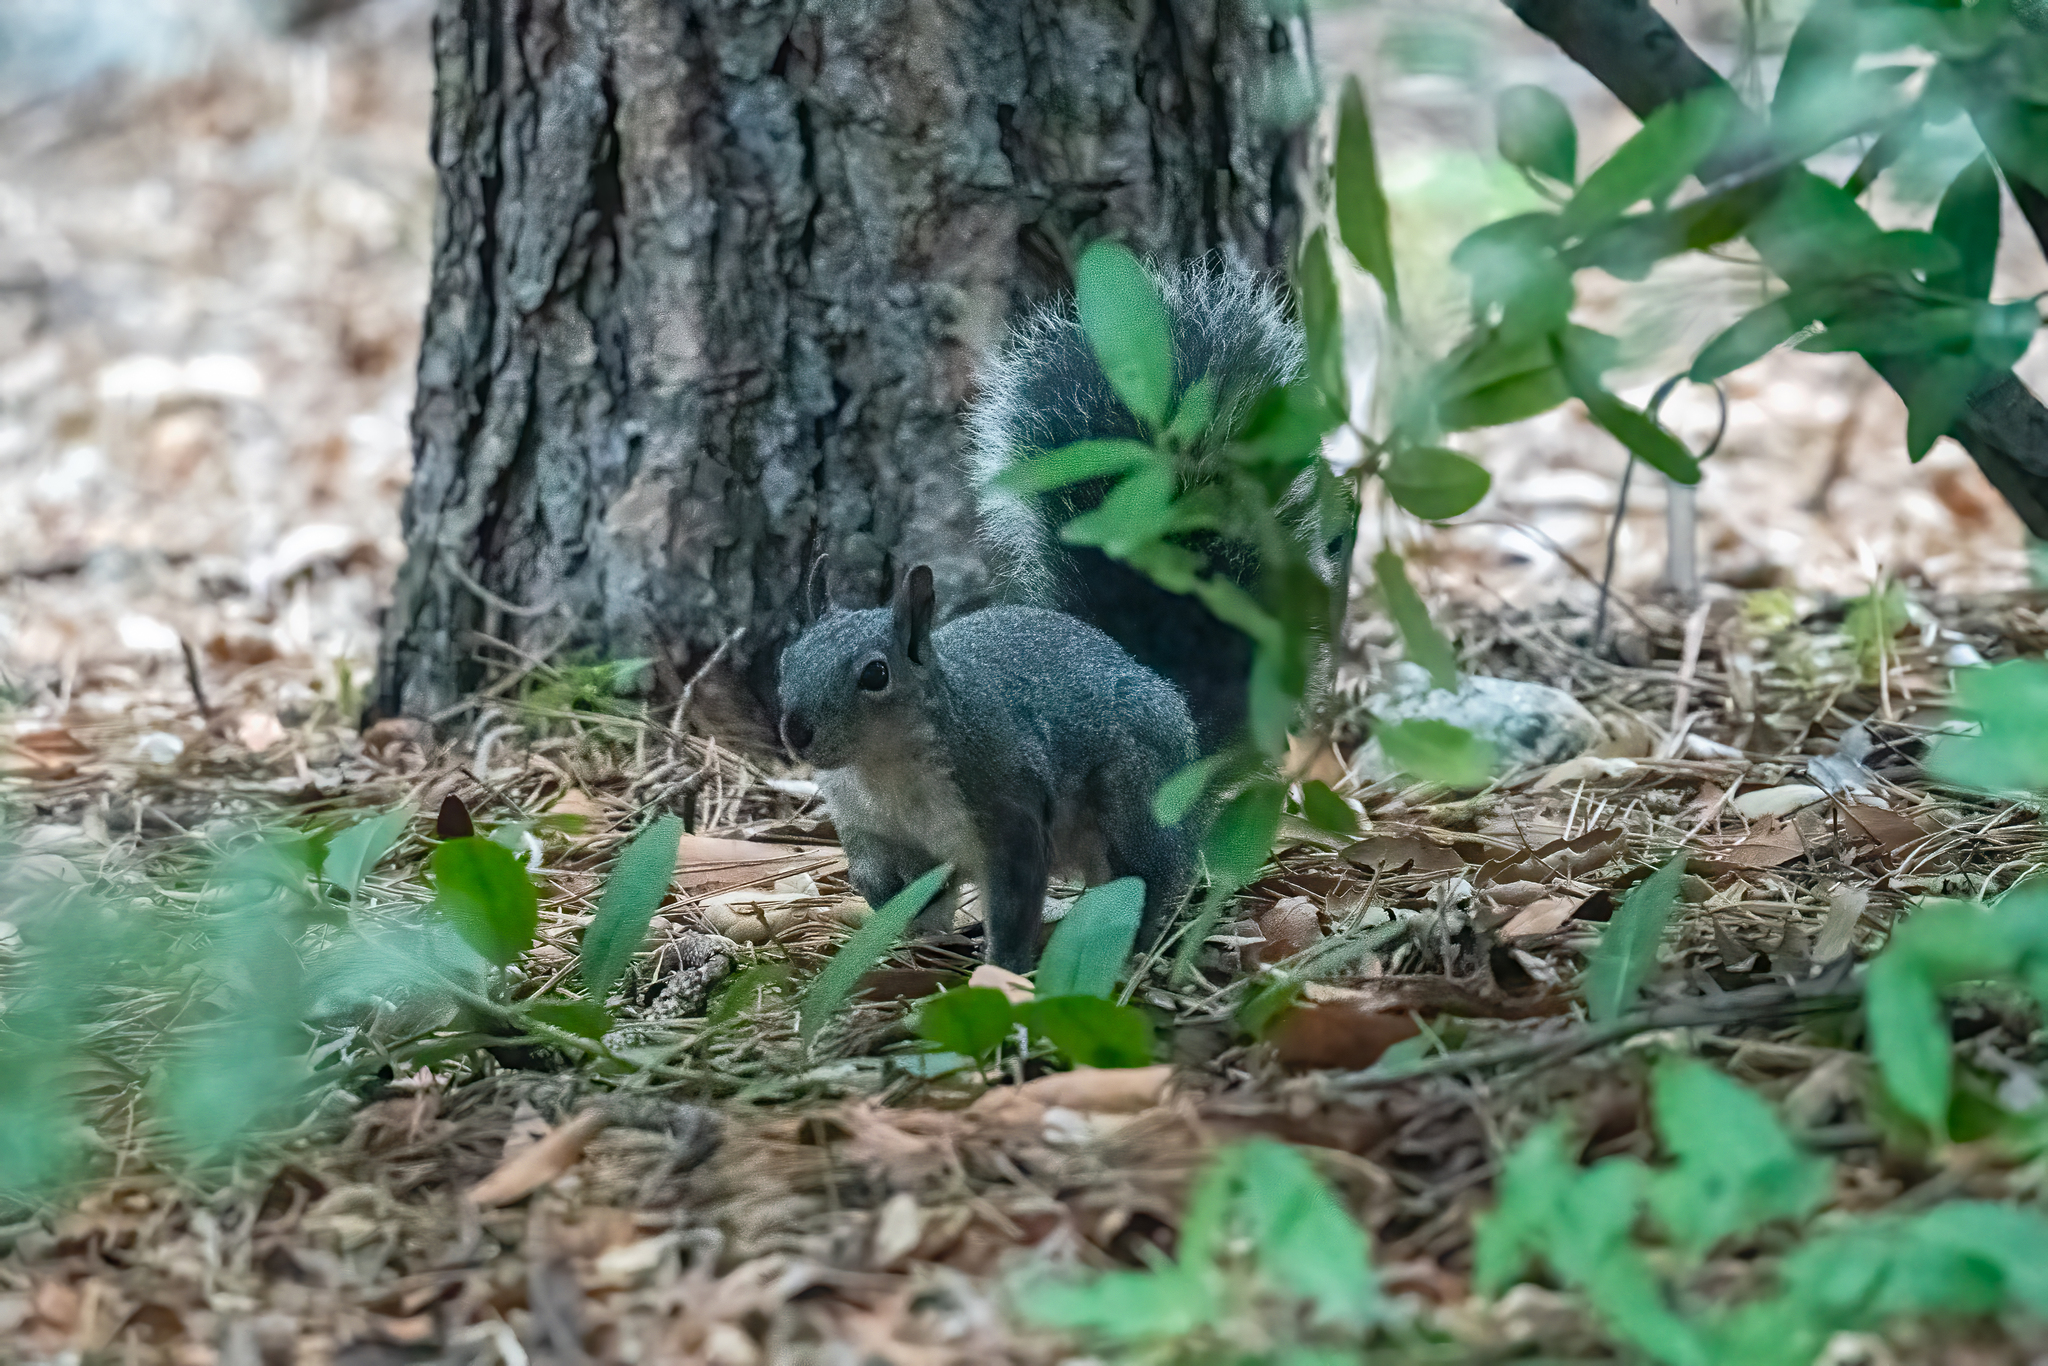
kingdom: Animalia
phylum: Chordata
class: Mammalia
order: Rodentia
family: Sciuridae
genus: Sciurus
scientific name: Sciurus griseus
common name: Western gray squirrel
